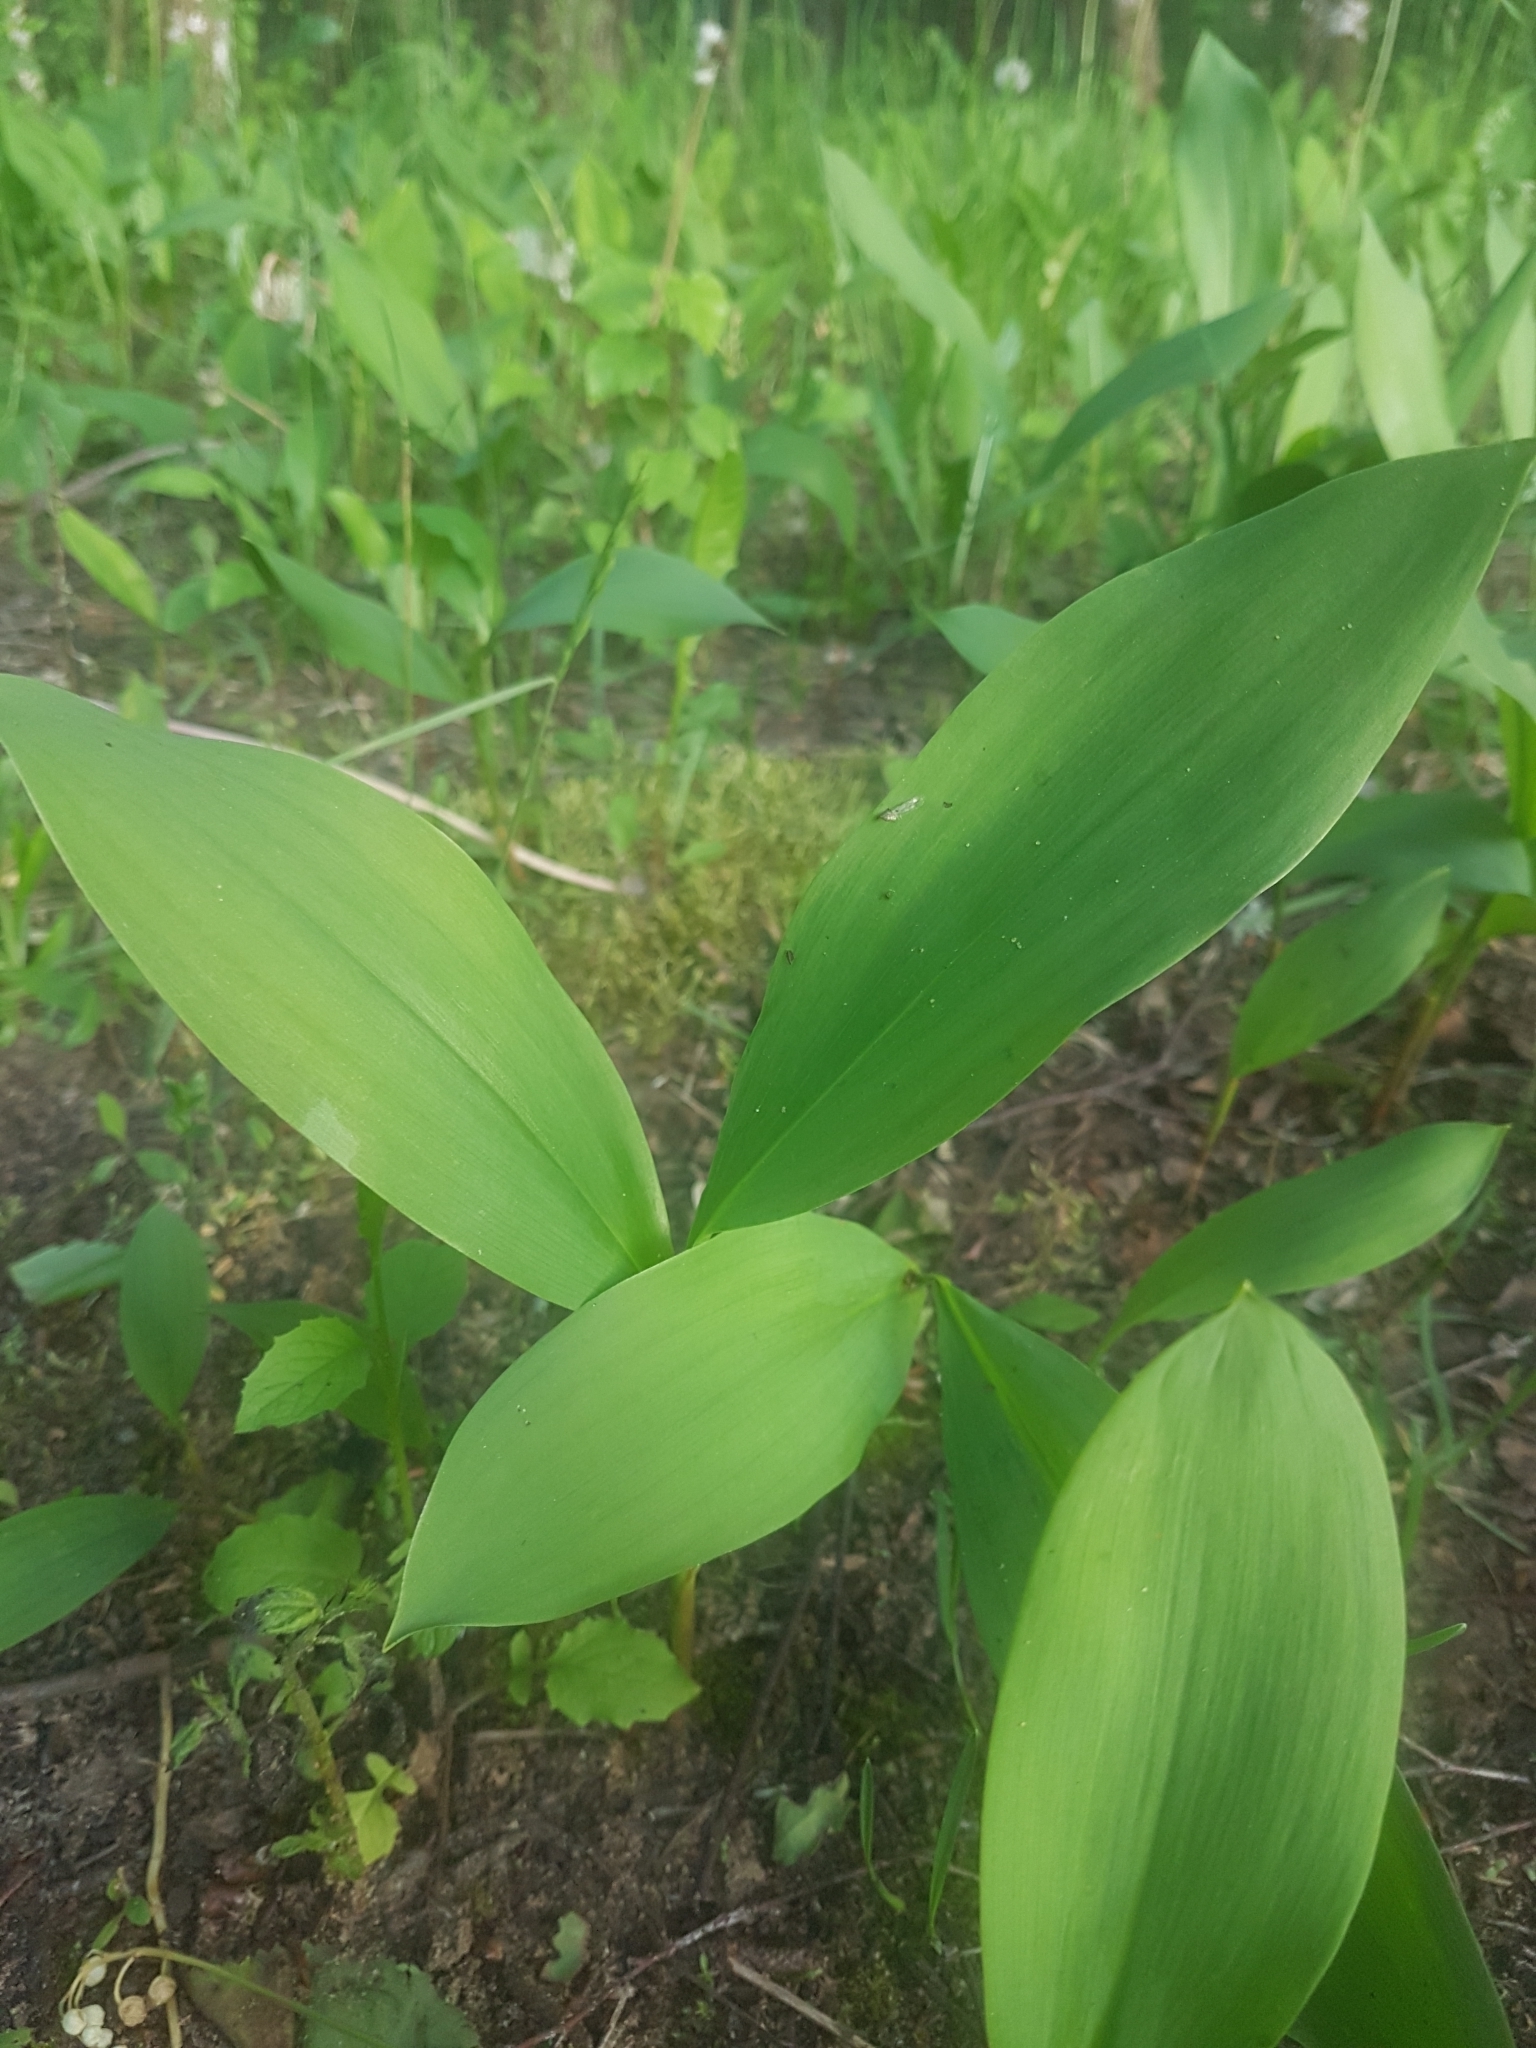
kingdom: Plantae
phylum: Tracheophyta
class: Liliopsida
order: Asparagales
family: Asparagaceae
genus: Convallaria
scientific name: Convallaria majalis
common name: Lily-of-the-valley
